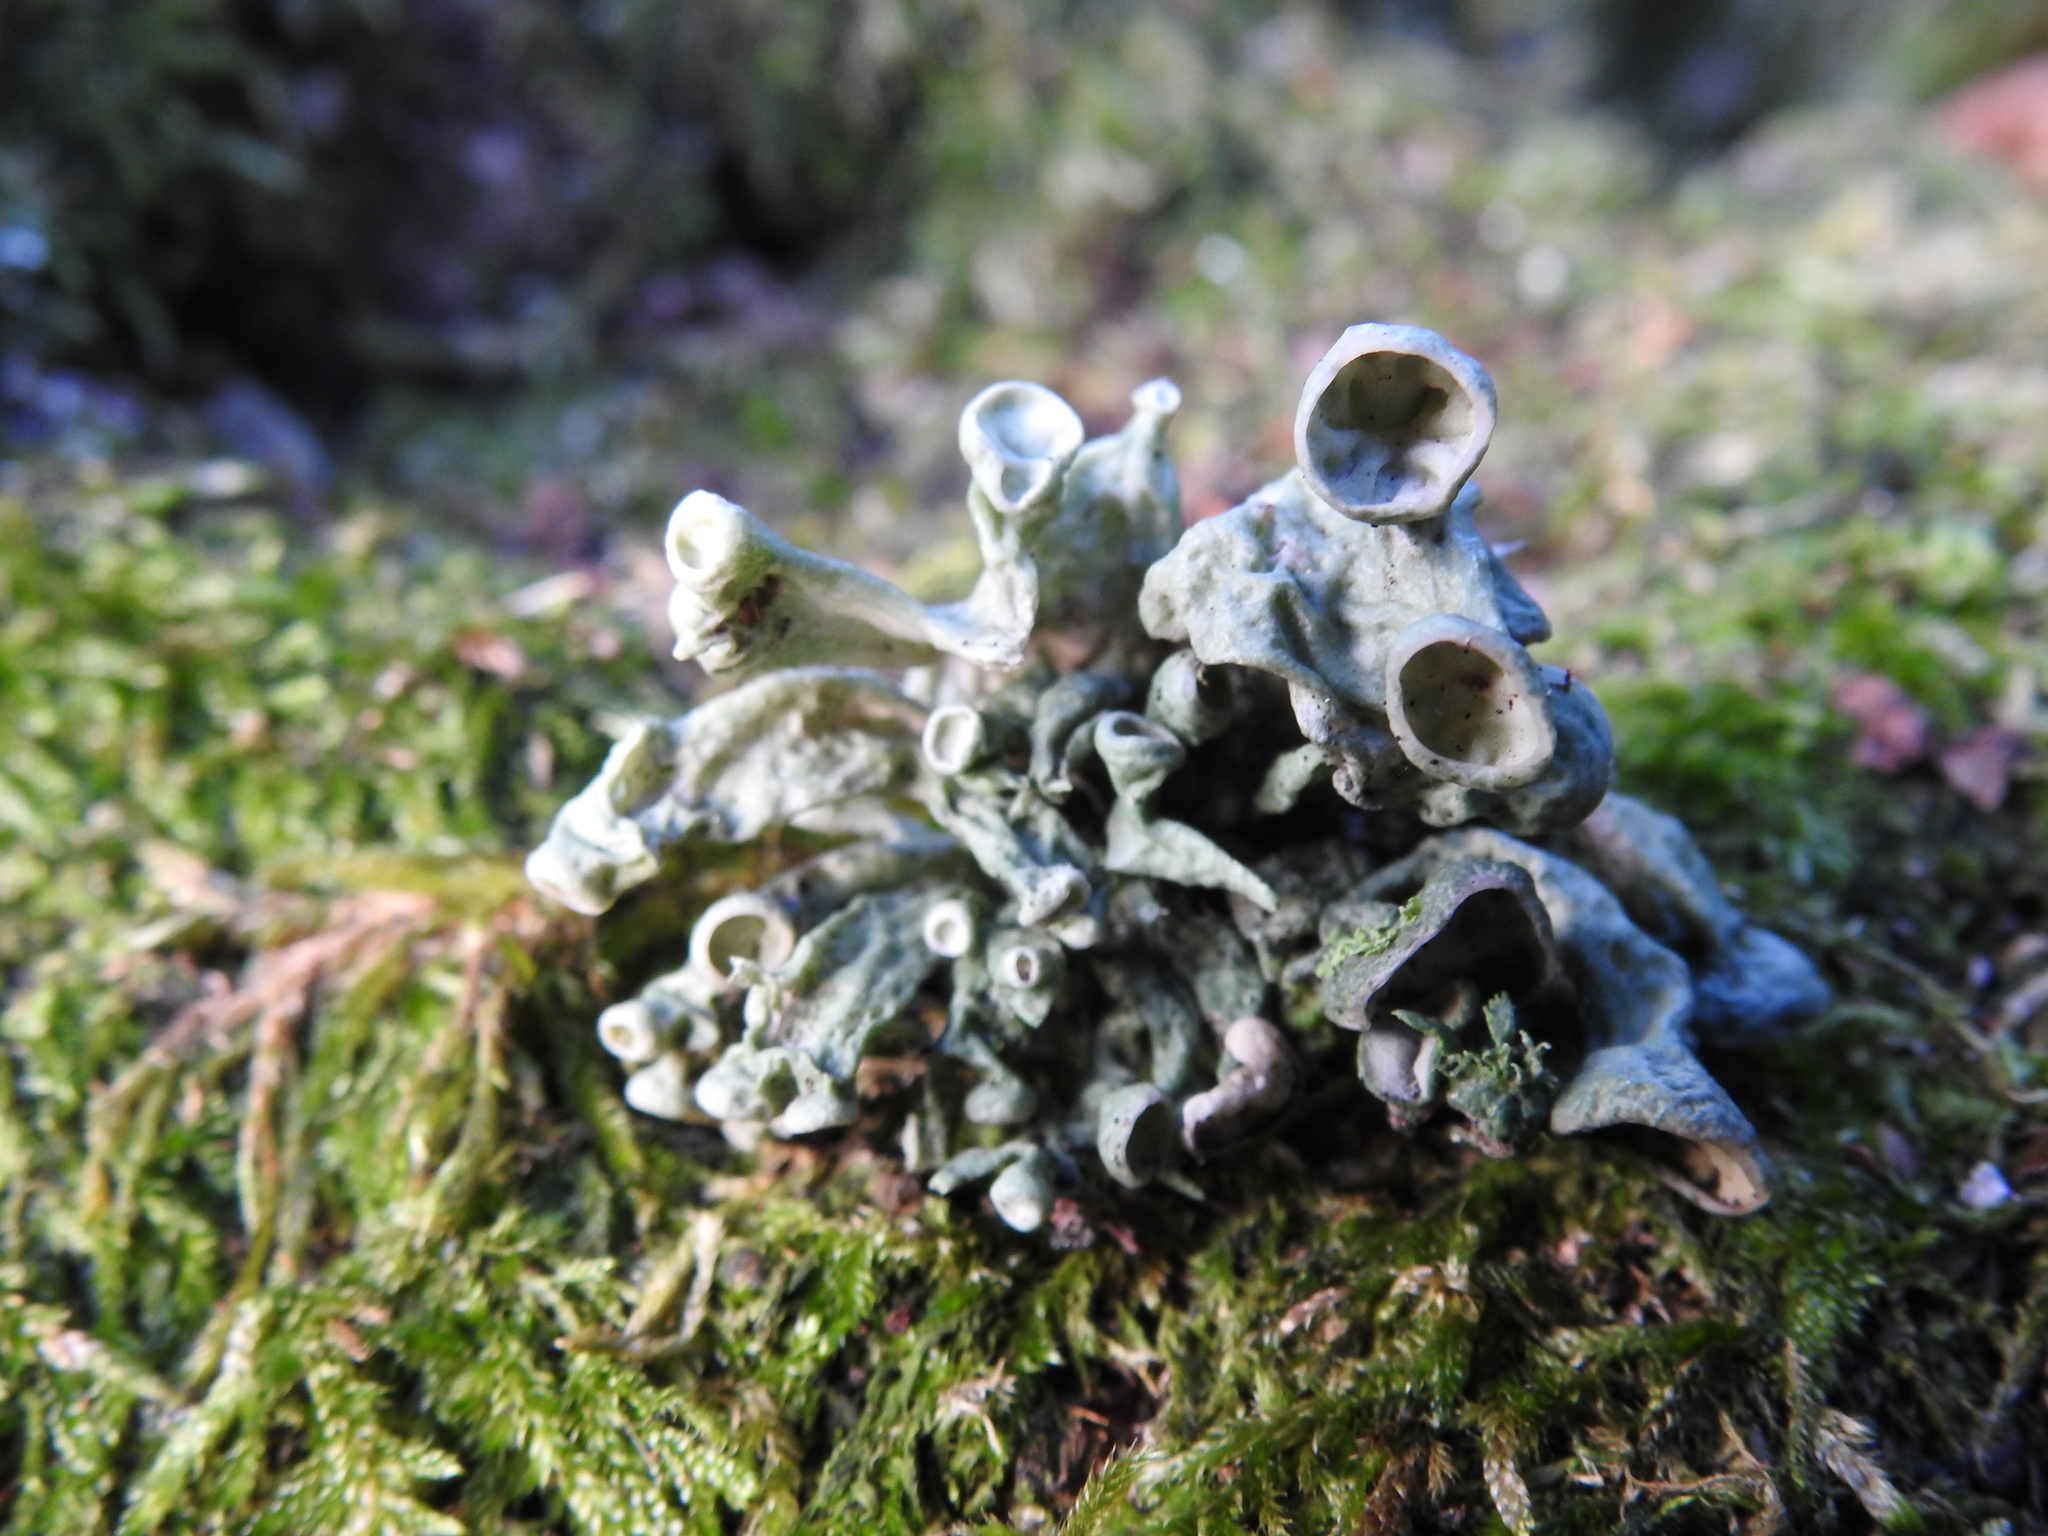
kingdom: Fungi
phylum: Ascomycota
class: Lecanoromycetes
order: Lecanorales
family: Ramalinaceae
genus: Ramalina
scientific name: Ramalina fastigiata
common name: Dotted ribbon lichen
